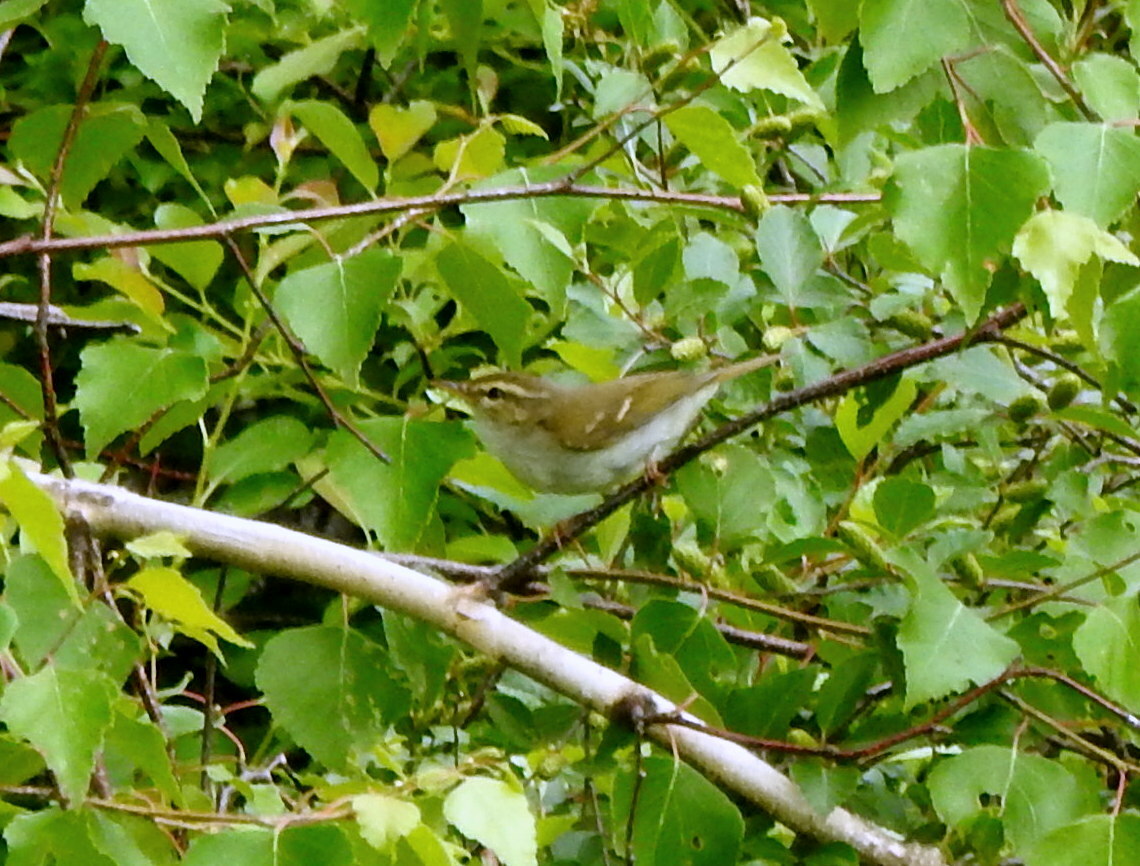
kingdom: Animalia
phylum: Chordata
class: Aves
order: Passeriformes
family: Phylloscopidae
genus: Phylloscopus
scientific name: Phylloscopus inornatus
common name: Yellow-browed warbler
